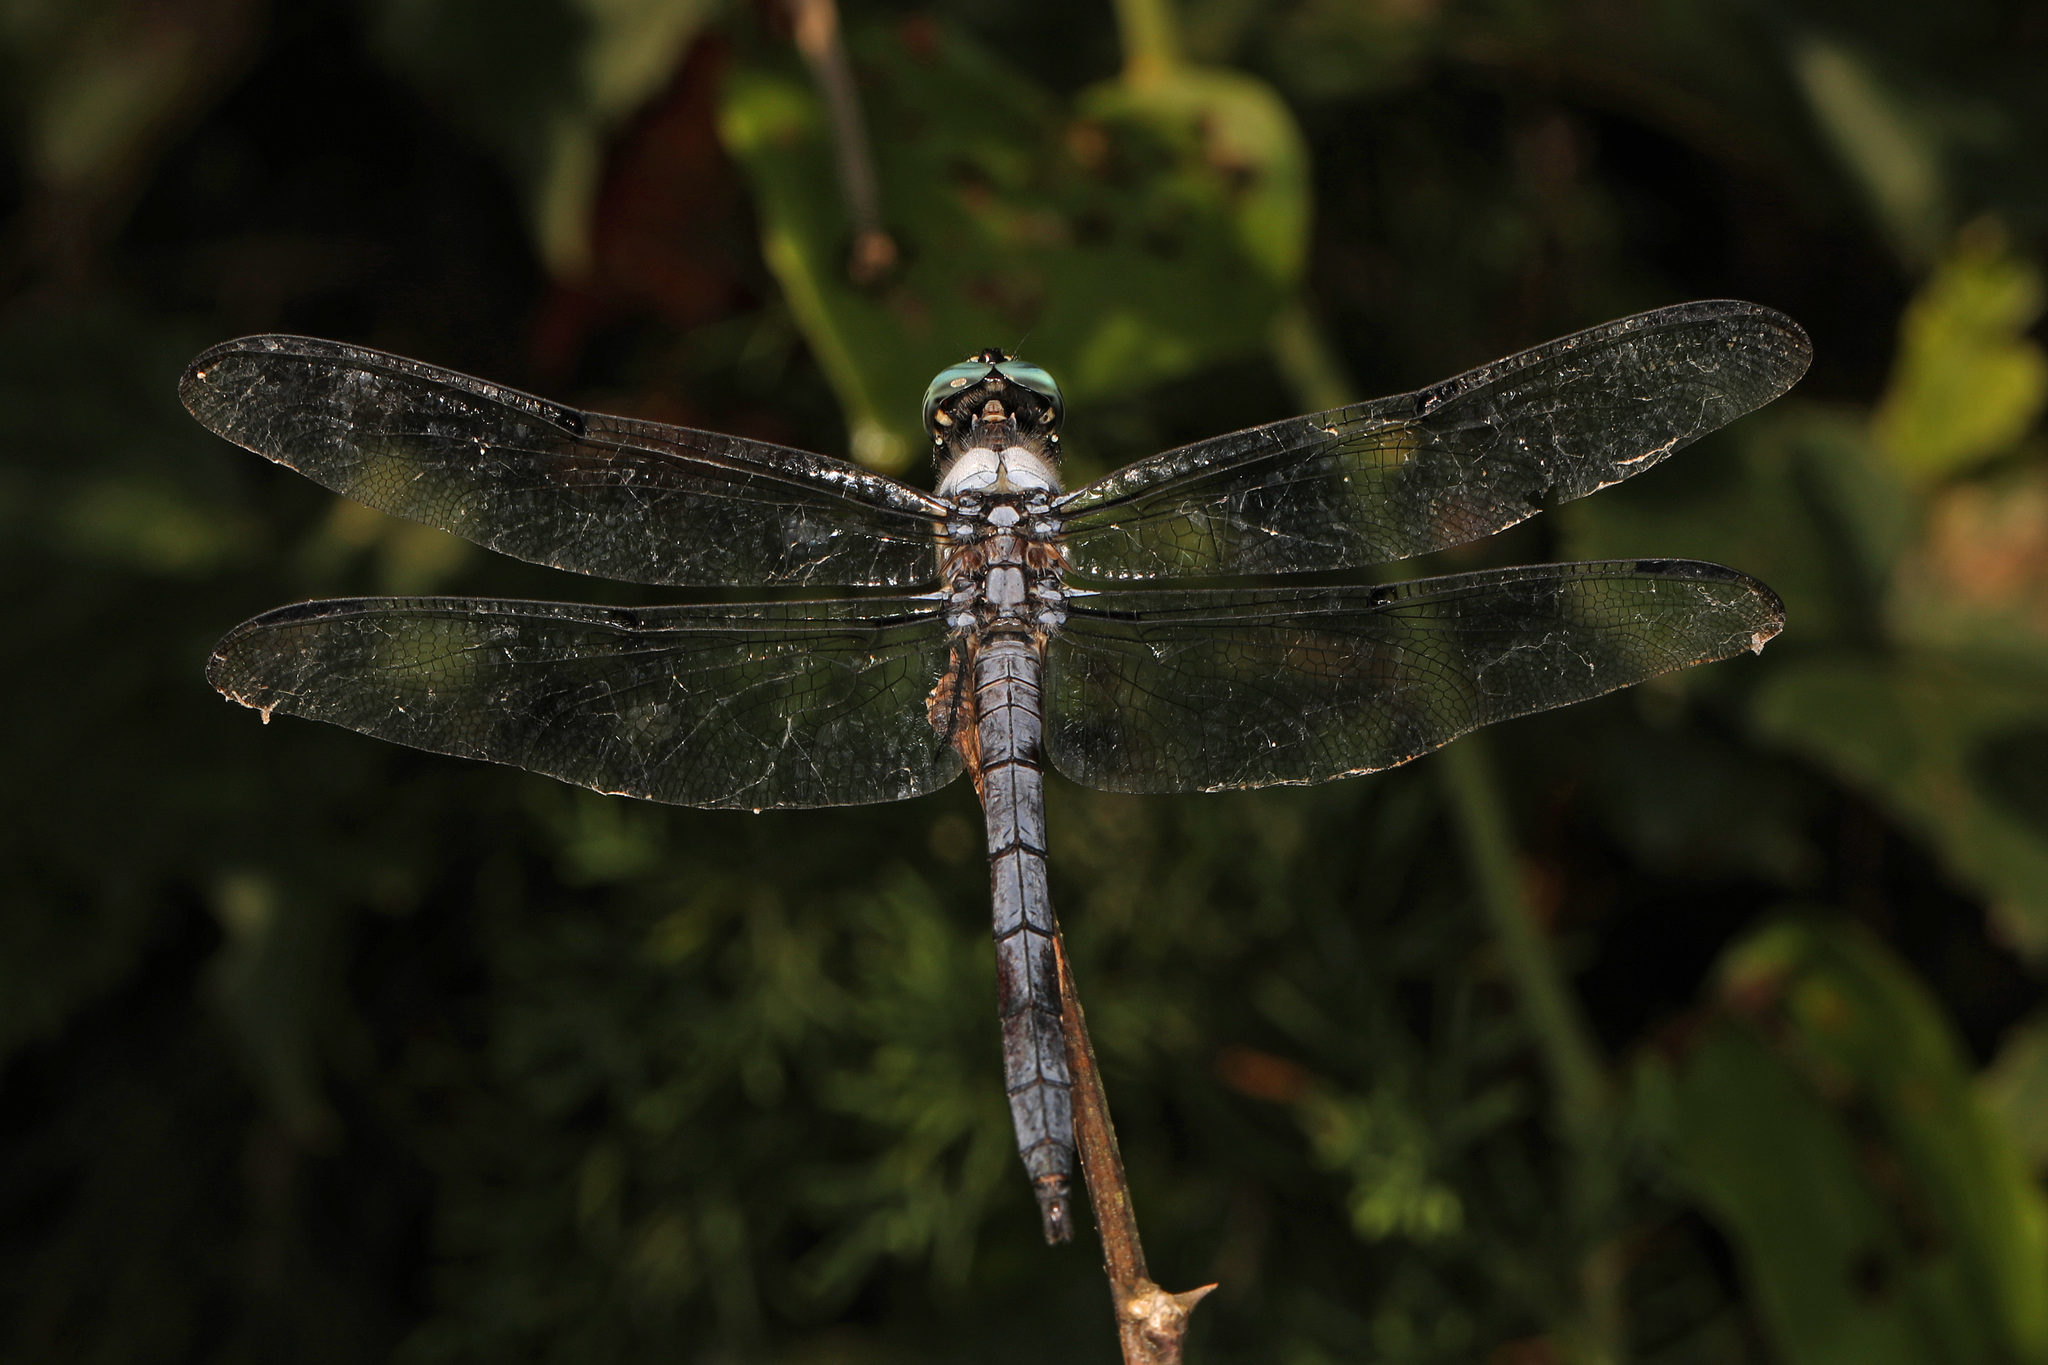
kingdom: Animalia
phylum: Arthropoda
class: Insecta
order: Odonata
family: Libellulidae
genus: Libellula
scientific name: Libellula vibrans
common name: Great blue skimmer
